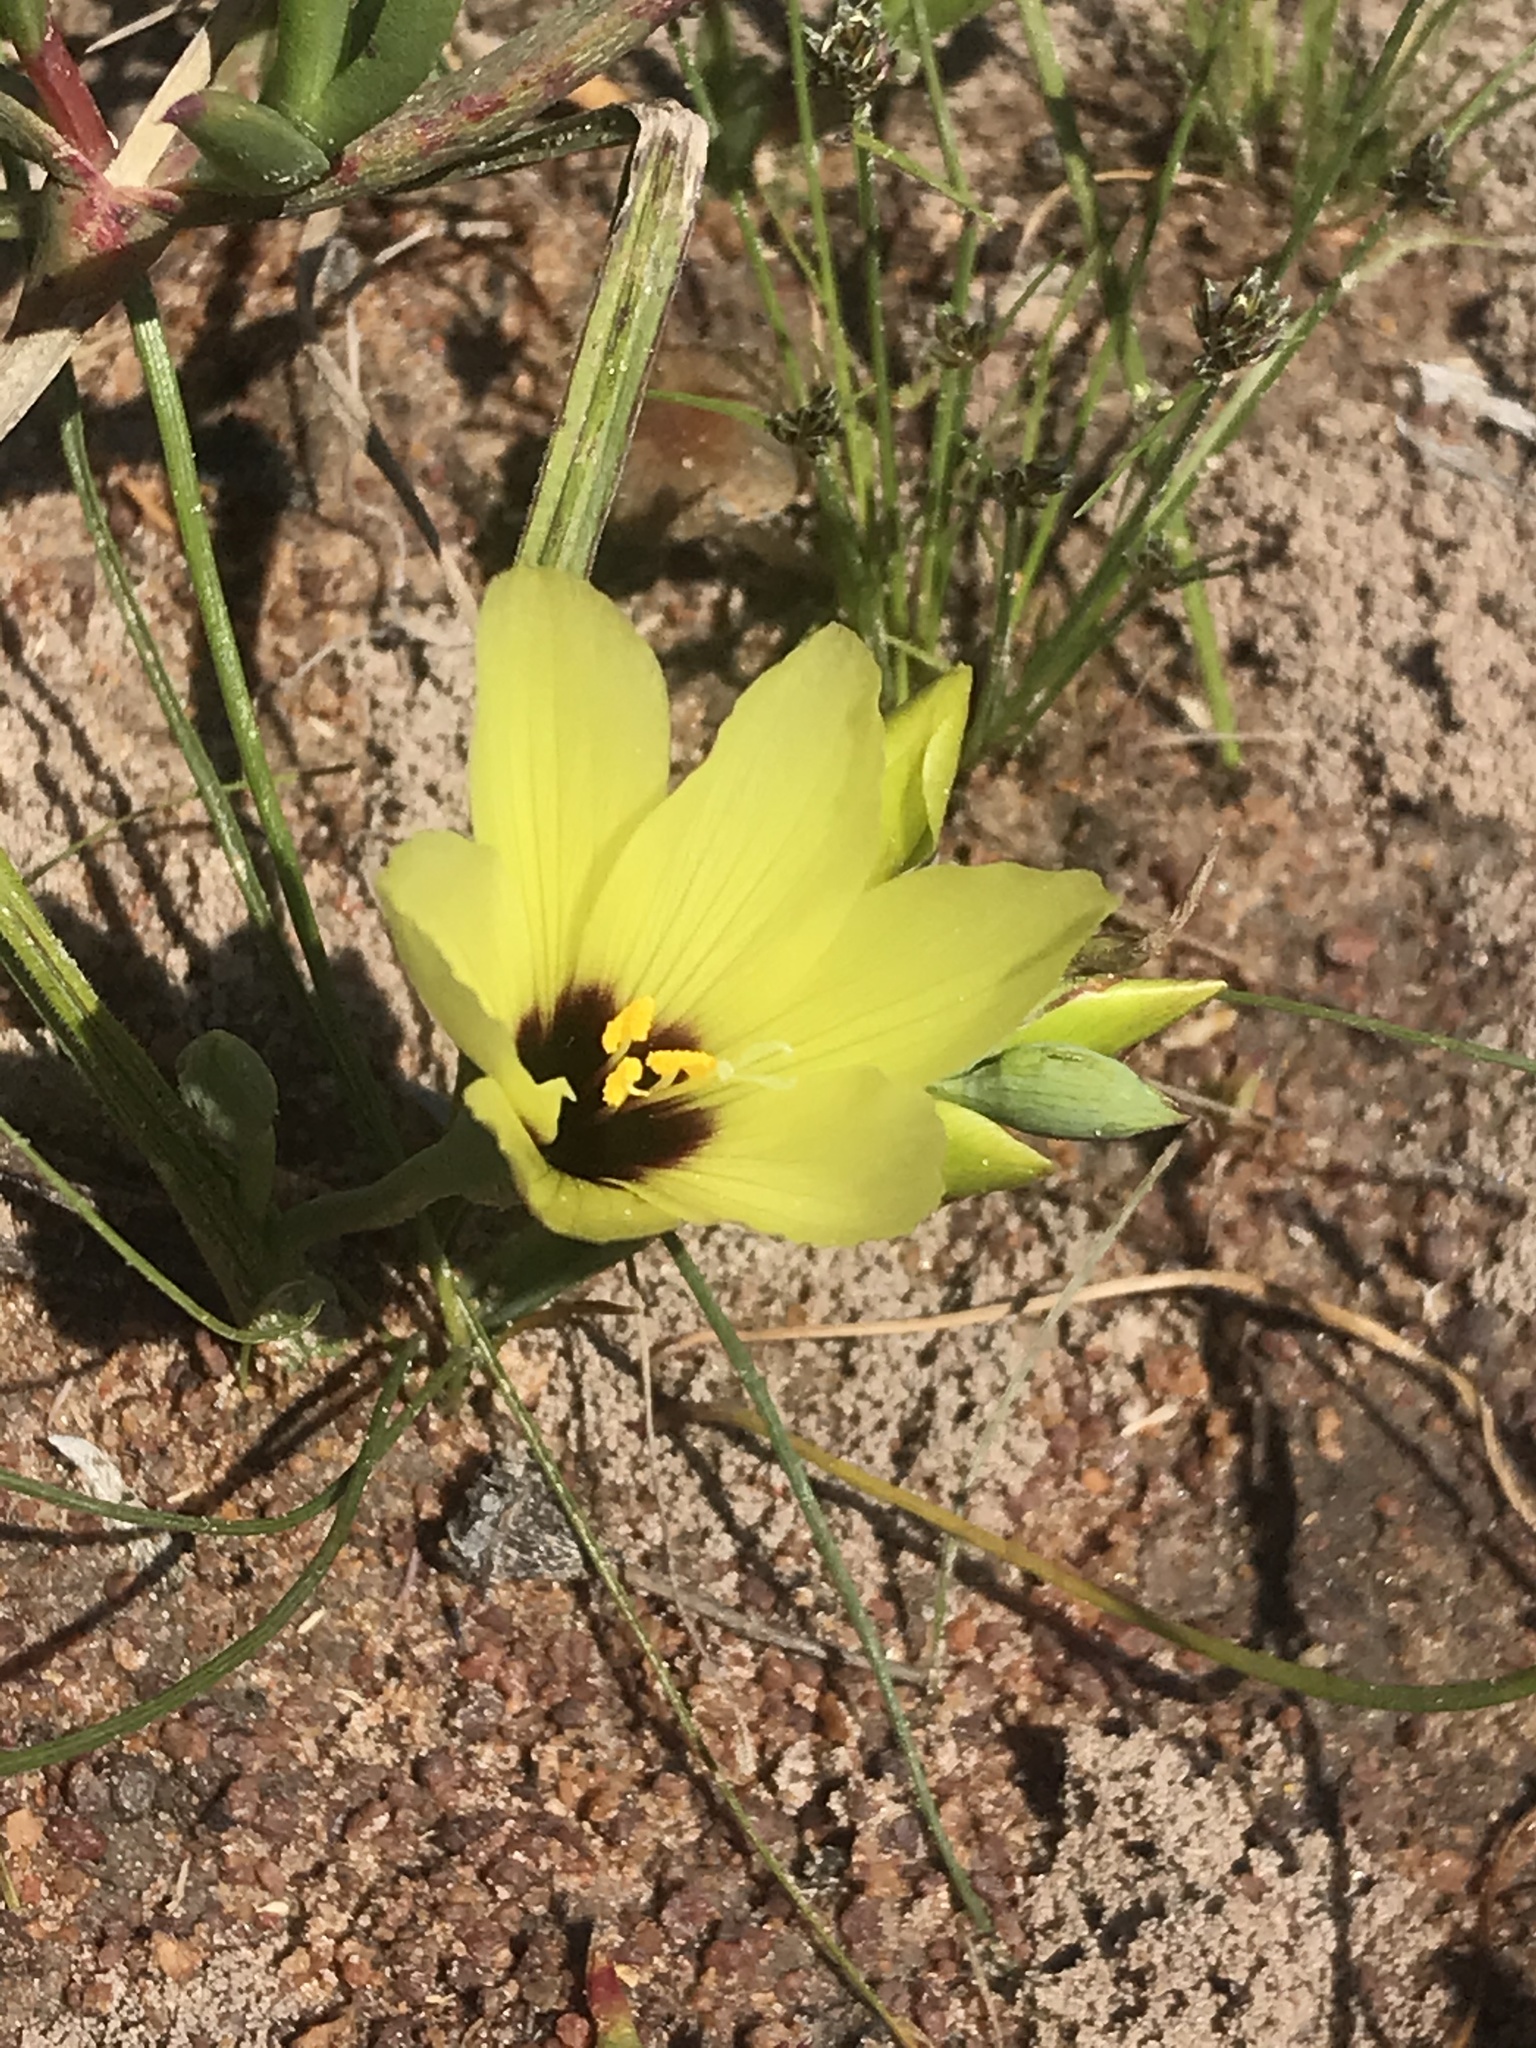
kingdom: Plantae
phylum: Tracheophyta
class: Liliopsida
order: Asparagales
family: Iridaceae
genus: Geissorhiza
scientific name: Geissorhiza darlingensis
